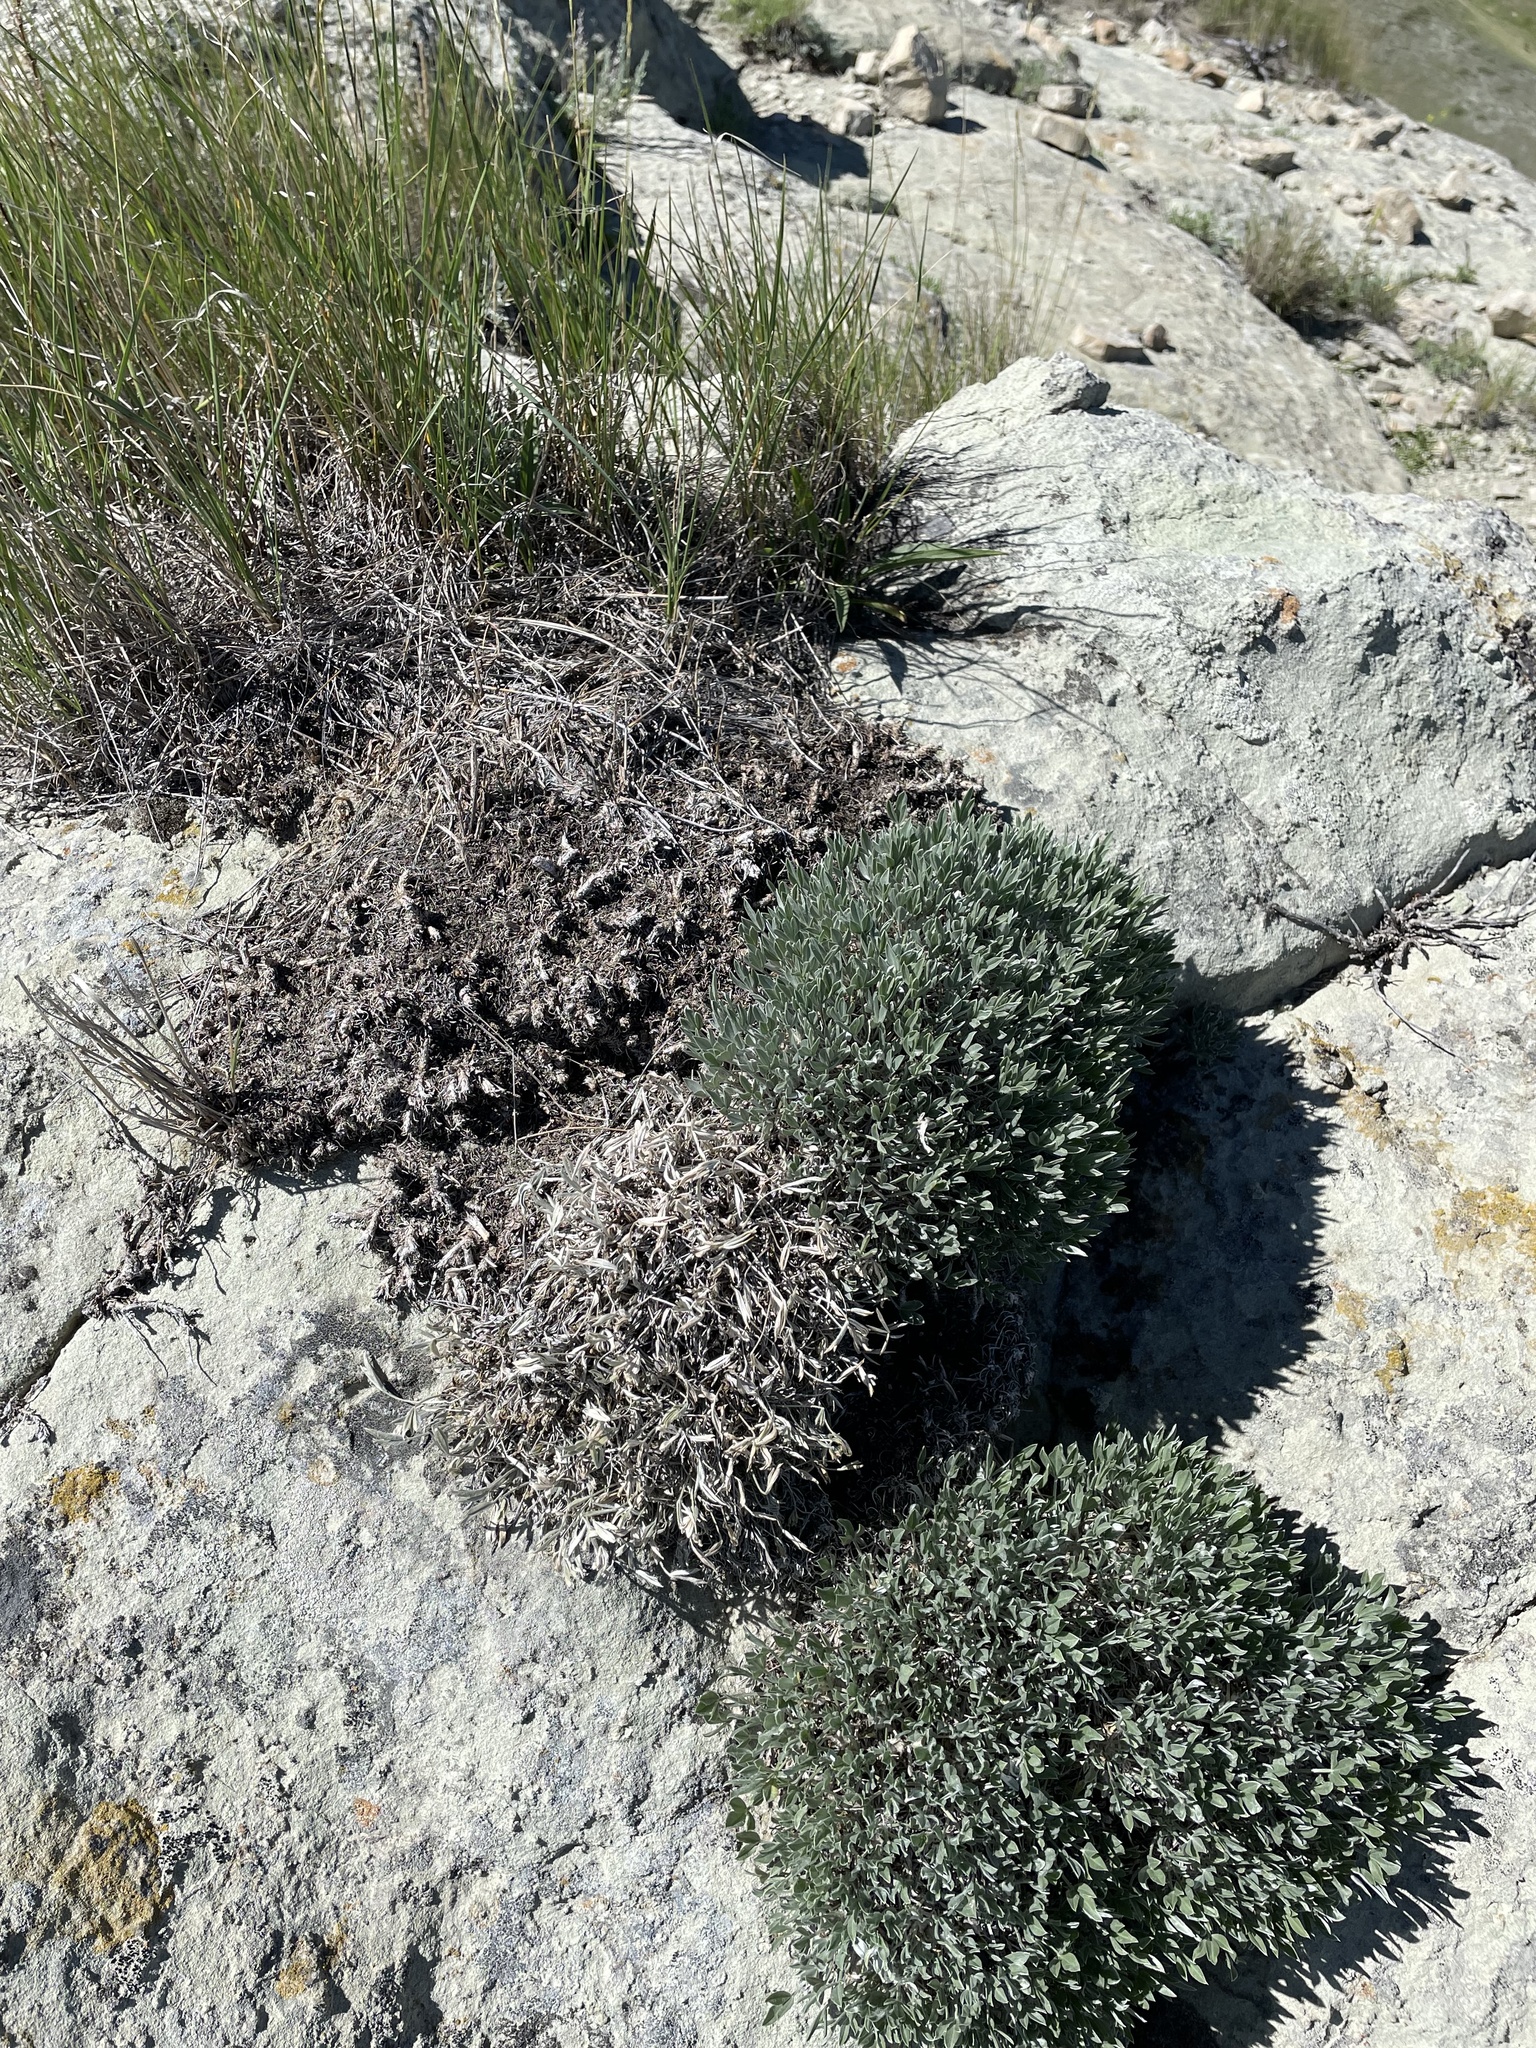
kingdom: Plantae
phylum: Tracheophyta
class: Magnoliopsida
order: Fabales
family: Fabaceae
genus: Astragalus
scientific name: Astragalus gilviflorus
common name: Cushion milk-vetch
